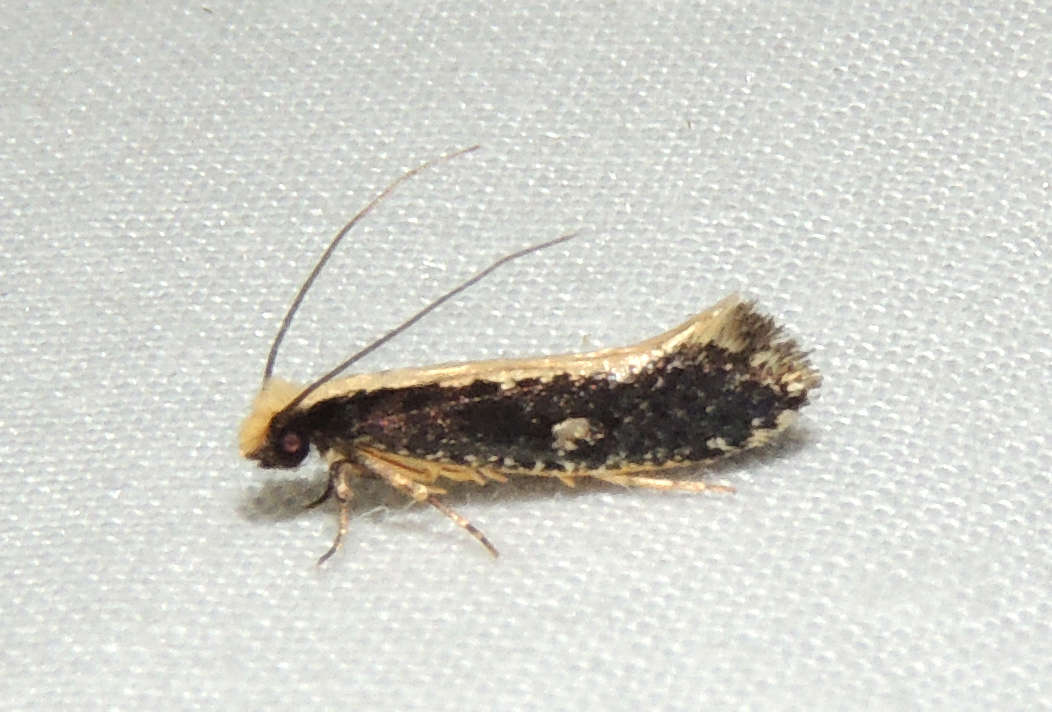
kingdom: Animalia
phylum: Arthropoda
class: Insecta
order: Lepidoptera
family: Tineidae
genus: Monopis
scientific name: Monopis ethelella
